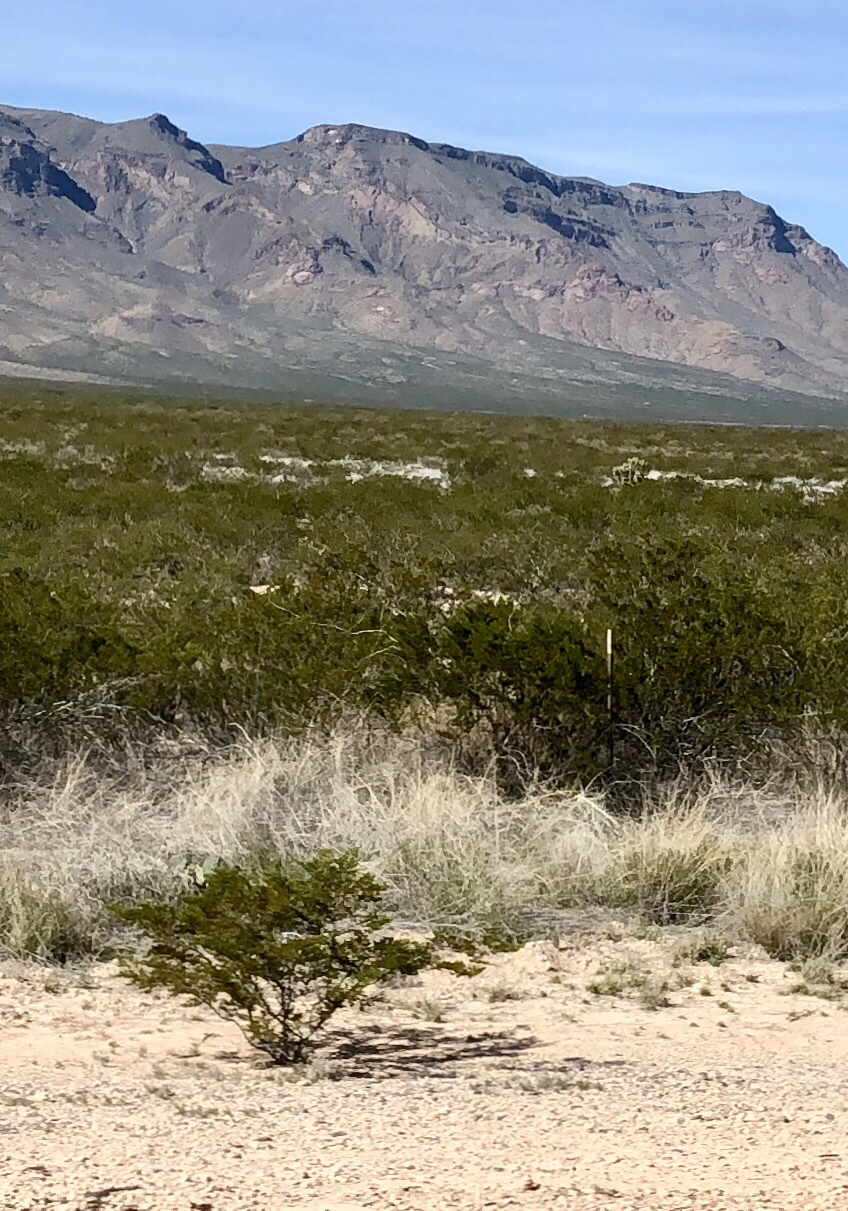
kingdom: Plantae
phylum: Tracheophyta
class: Magnoliopsida
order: Zygophyllales
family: Zygophyllaceae
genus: Larrea
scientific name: Larrea tridentata
